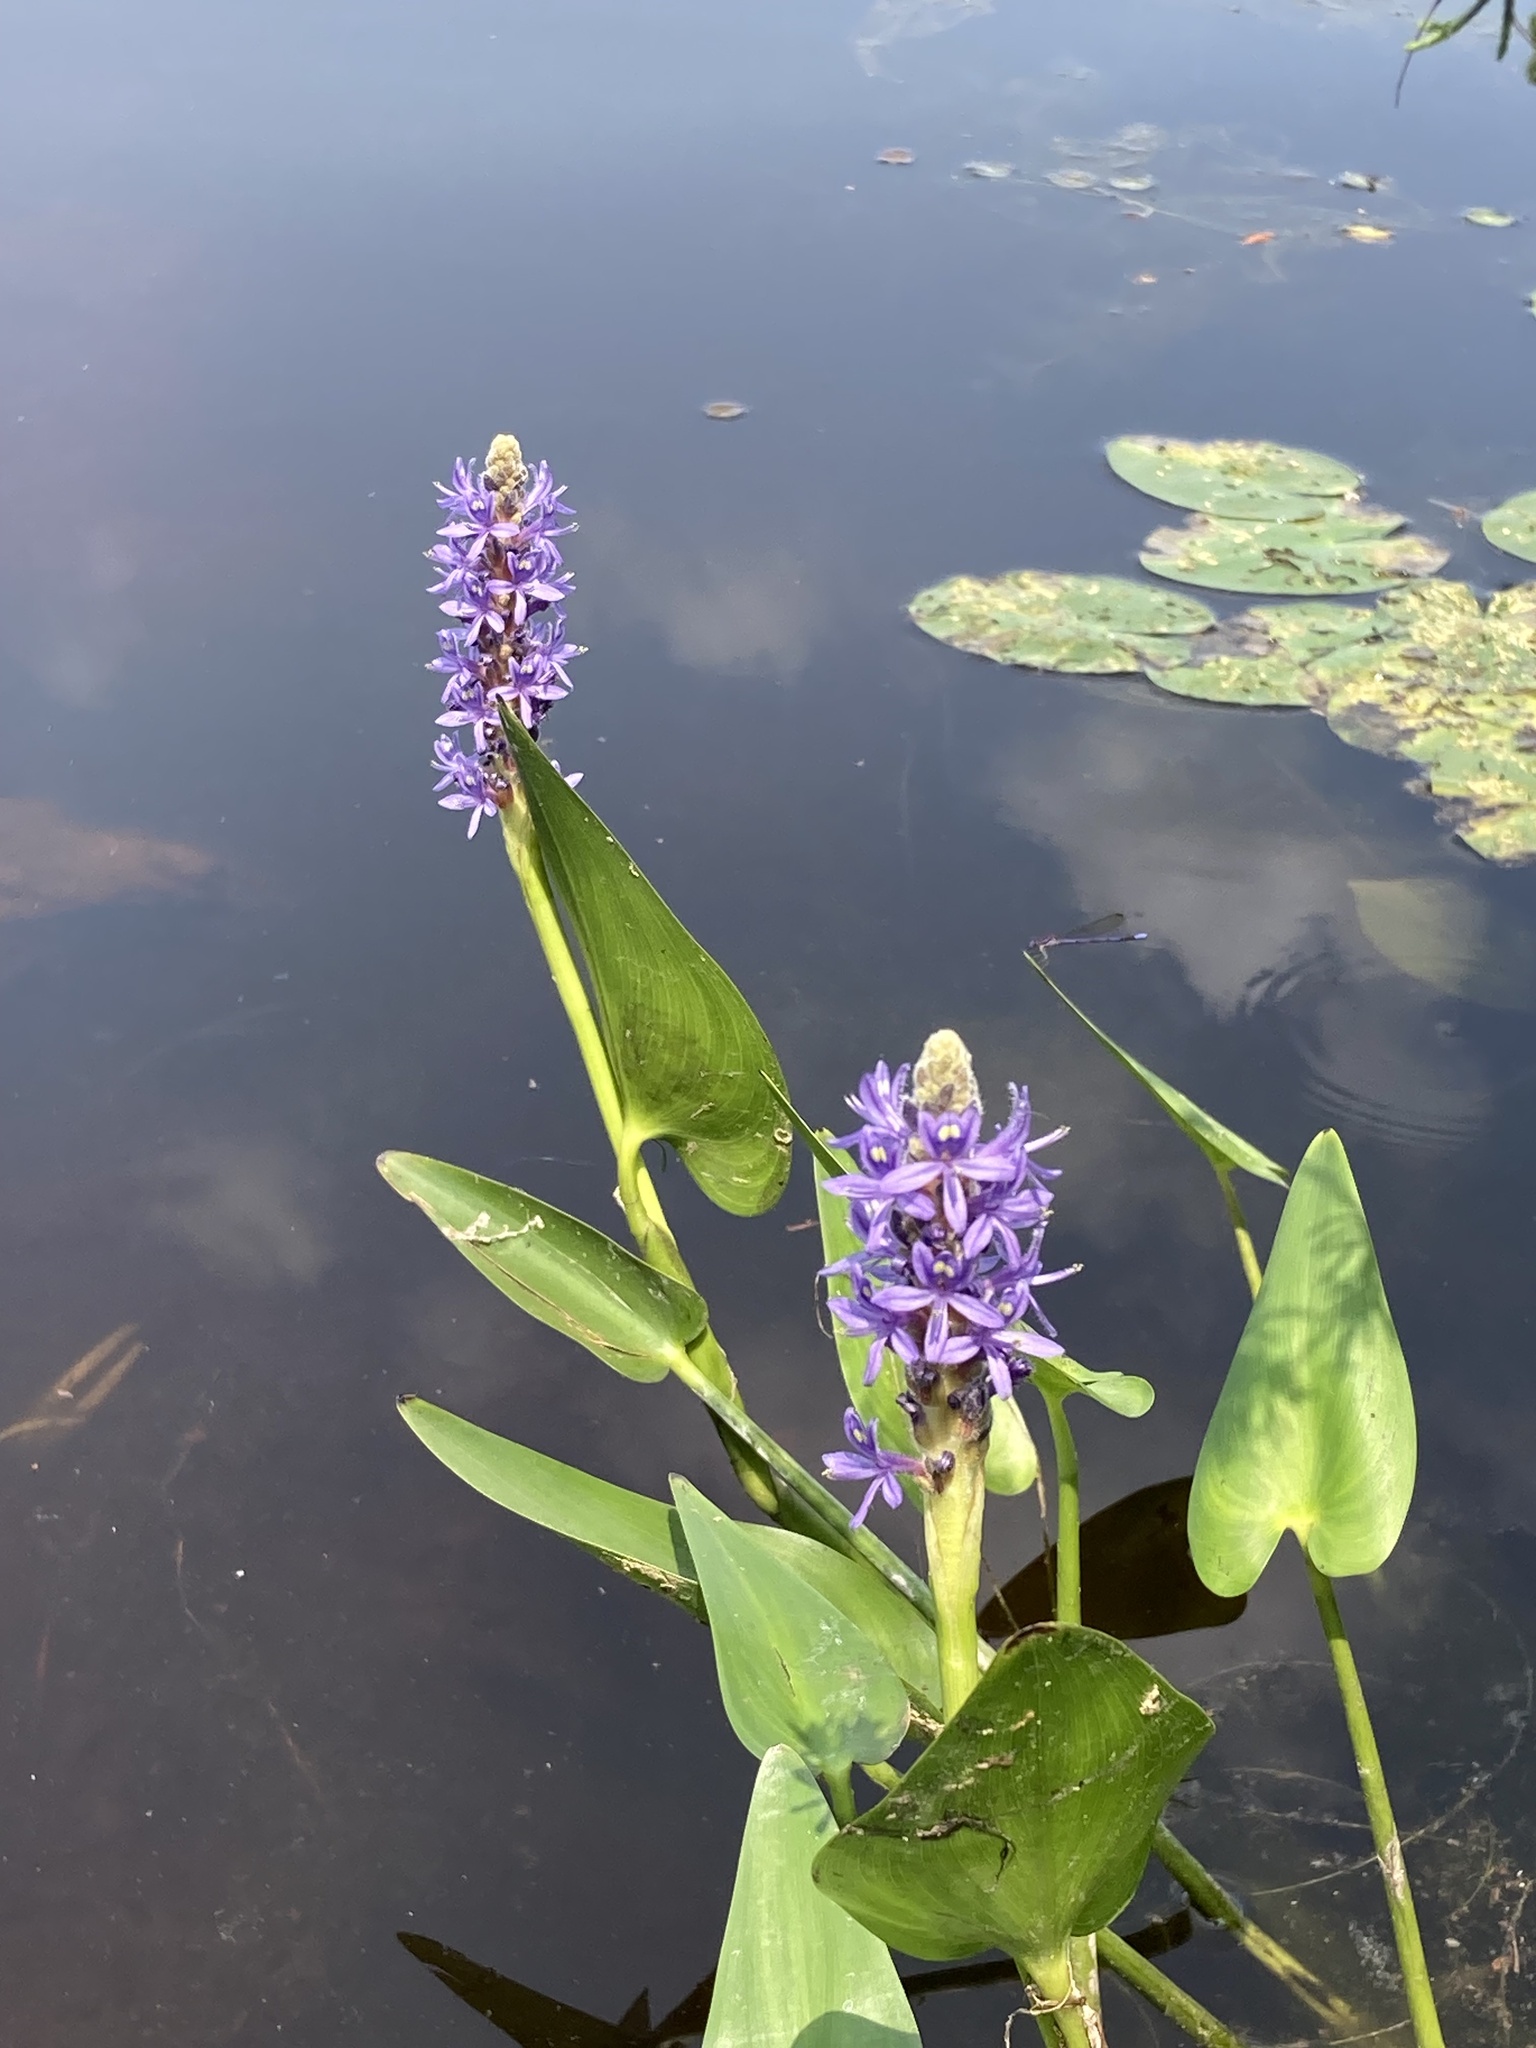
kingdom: Plantae
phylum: Tracheophyta
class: Liliopsida
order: Commelinales
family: Pontederiaceae
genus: Pontederia
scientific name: Pontederia cordata
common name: Pickerelweed
